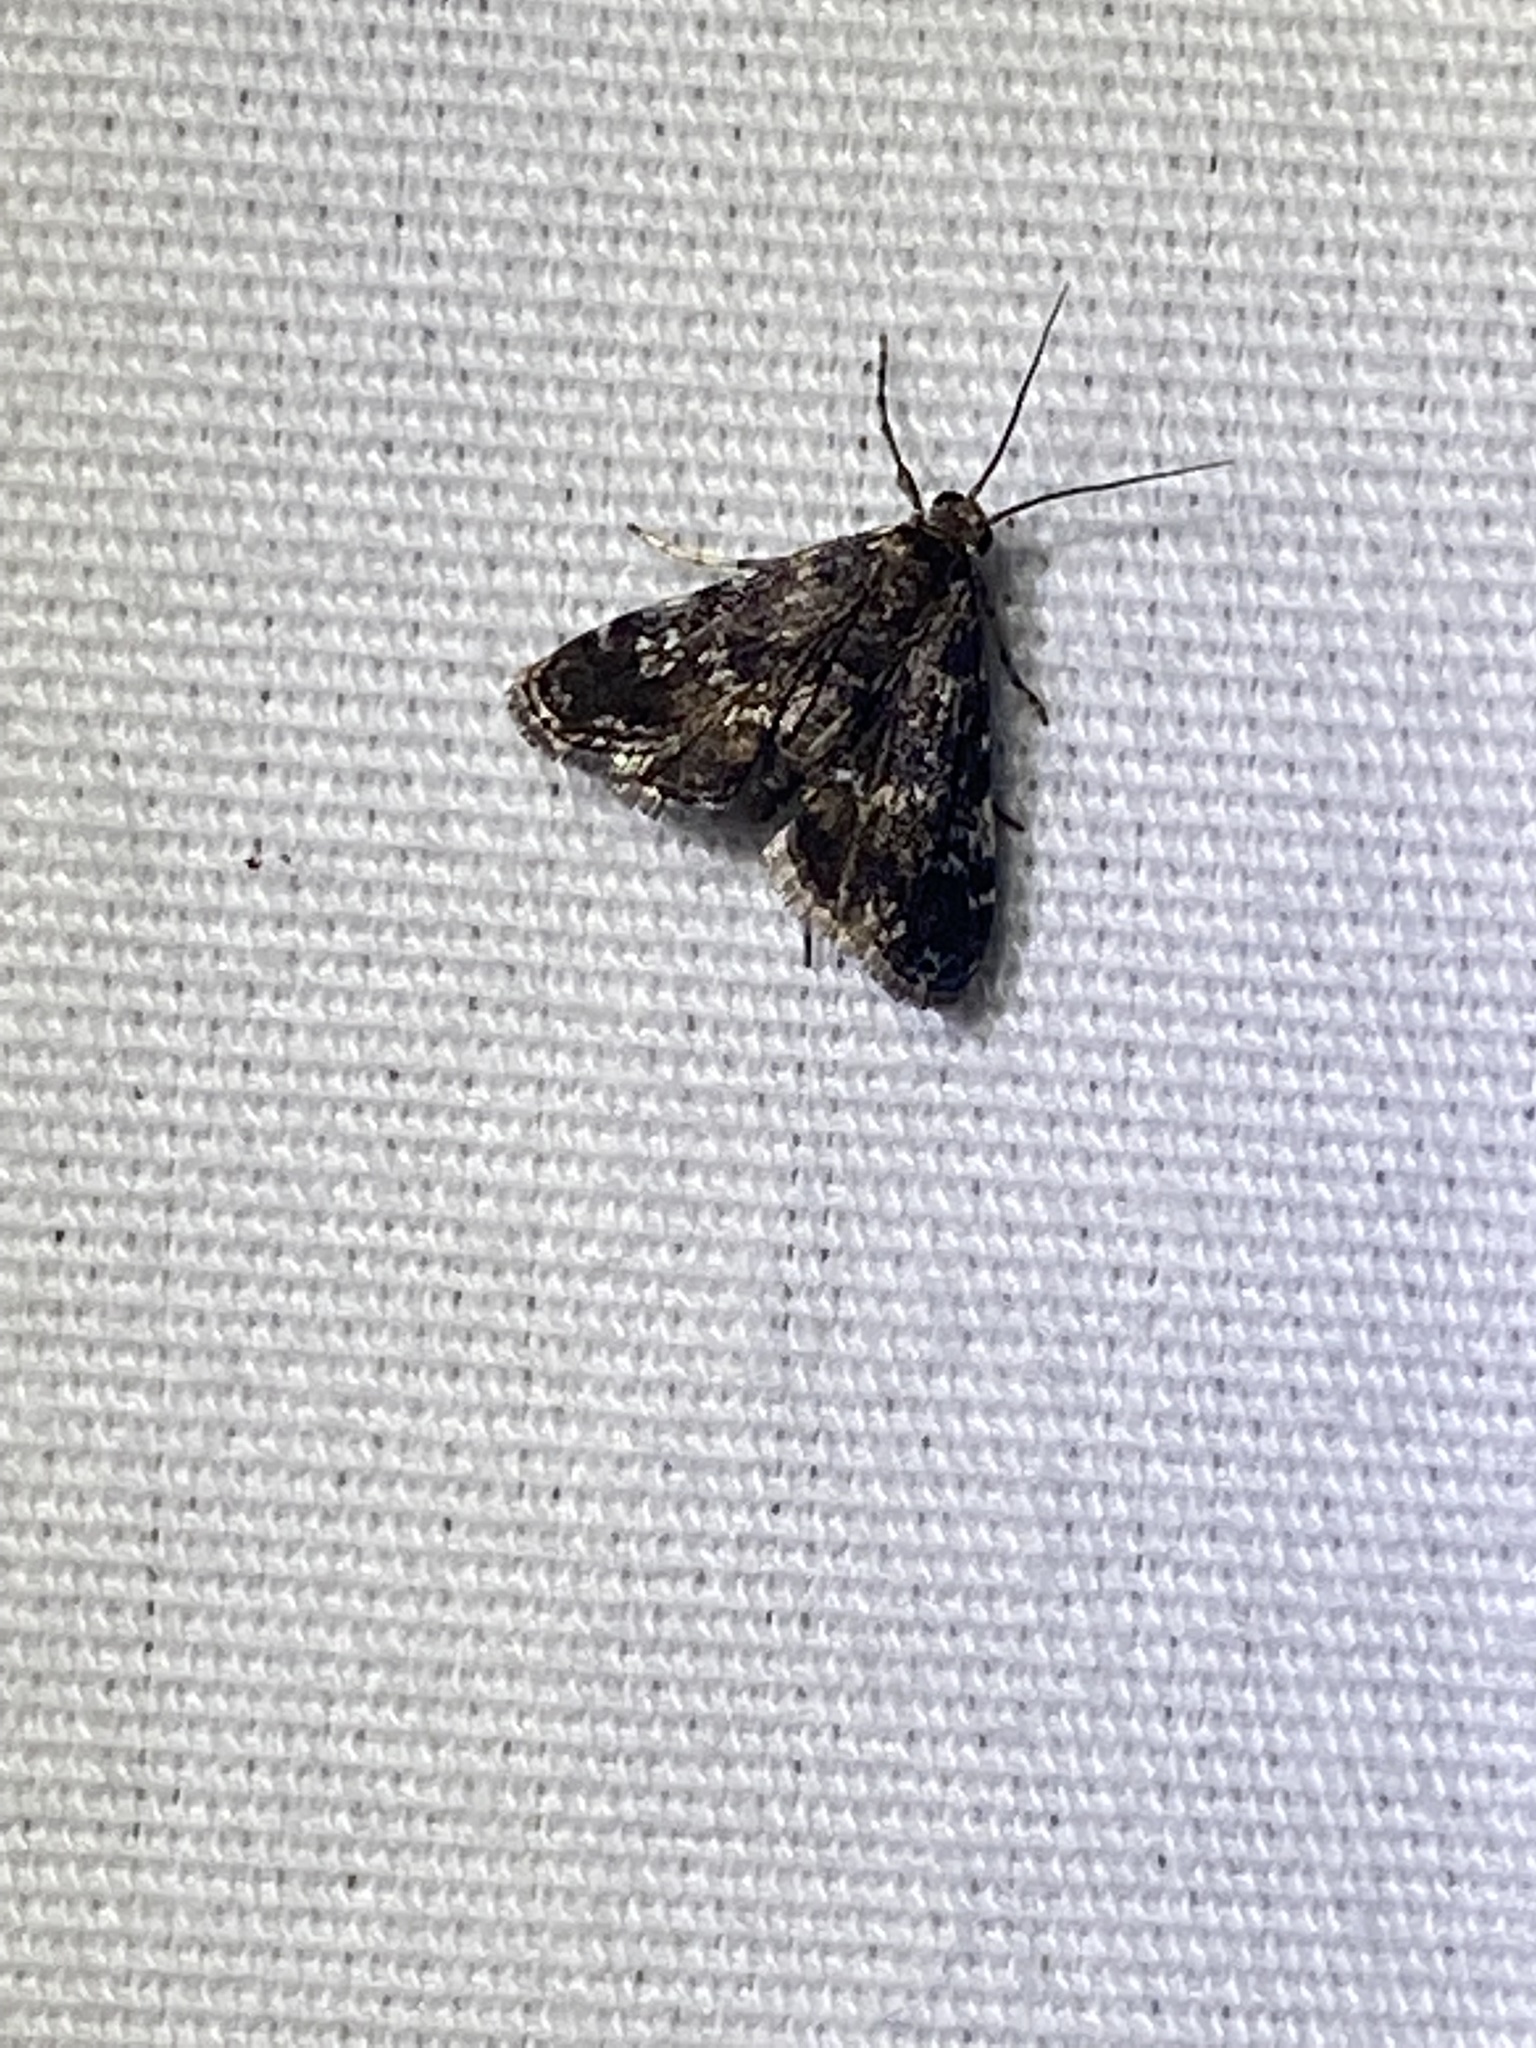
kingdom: Animalia
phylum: Arthropoda
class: Insecta
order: Lepidoptera
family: Crambidae
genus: Elophila
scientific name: Elophila obliteralis
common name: Waterlily leafcutter moth
